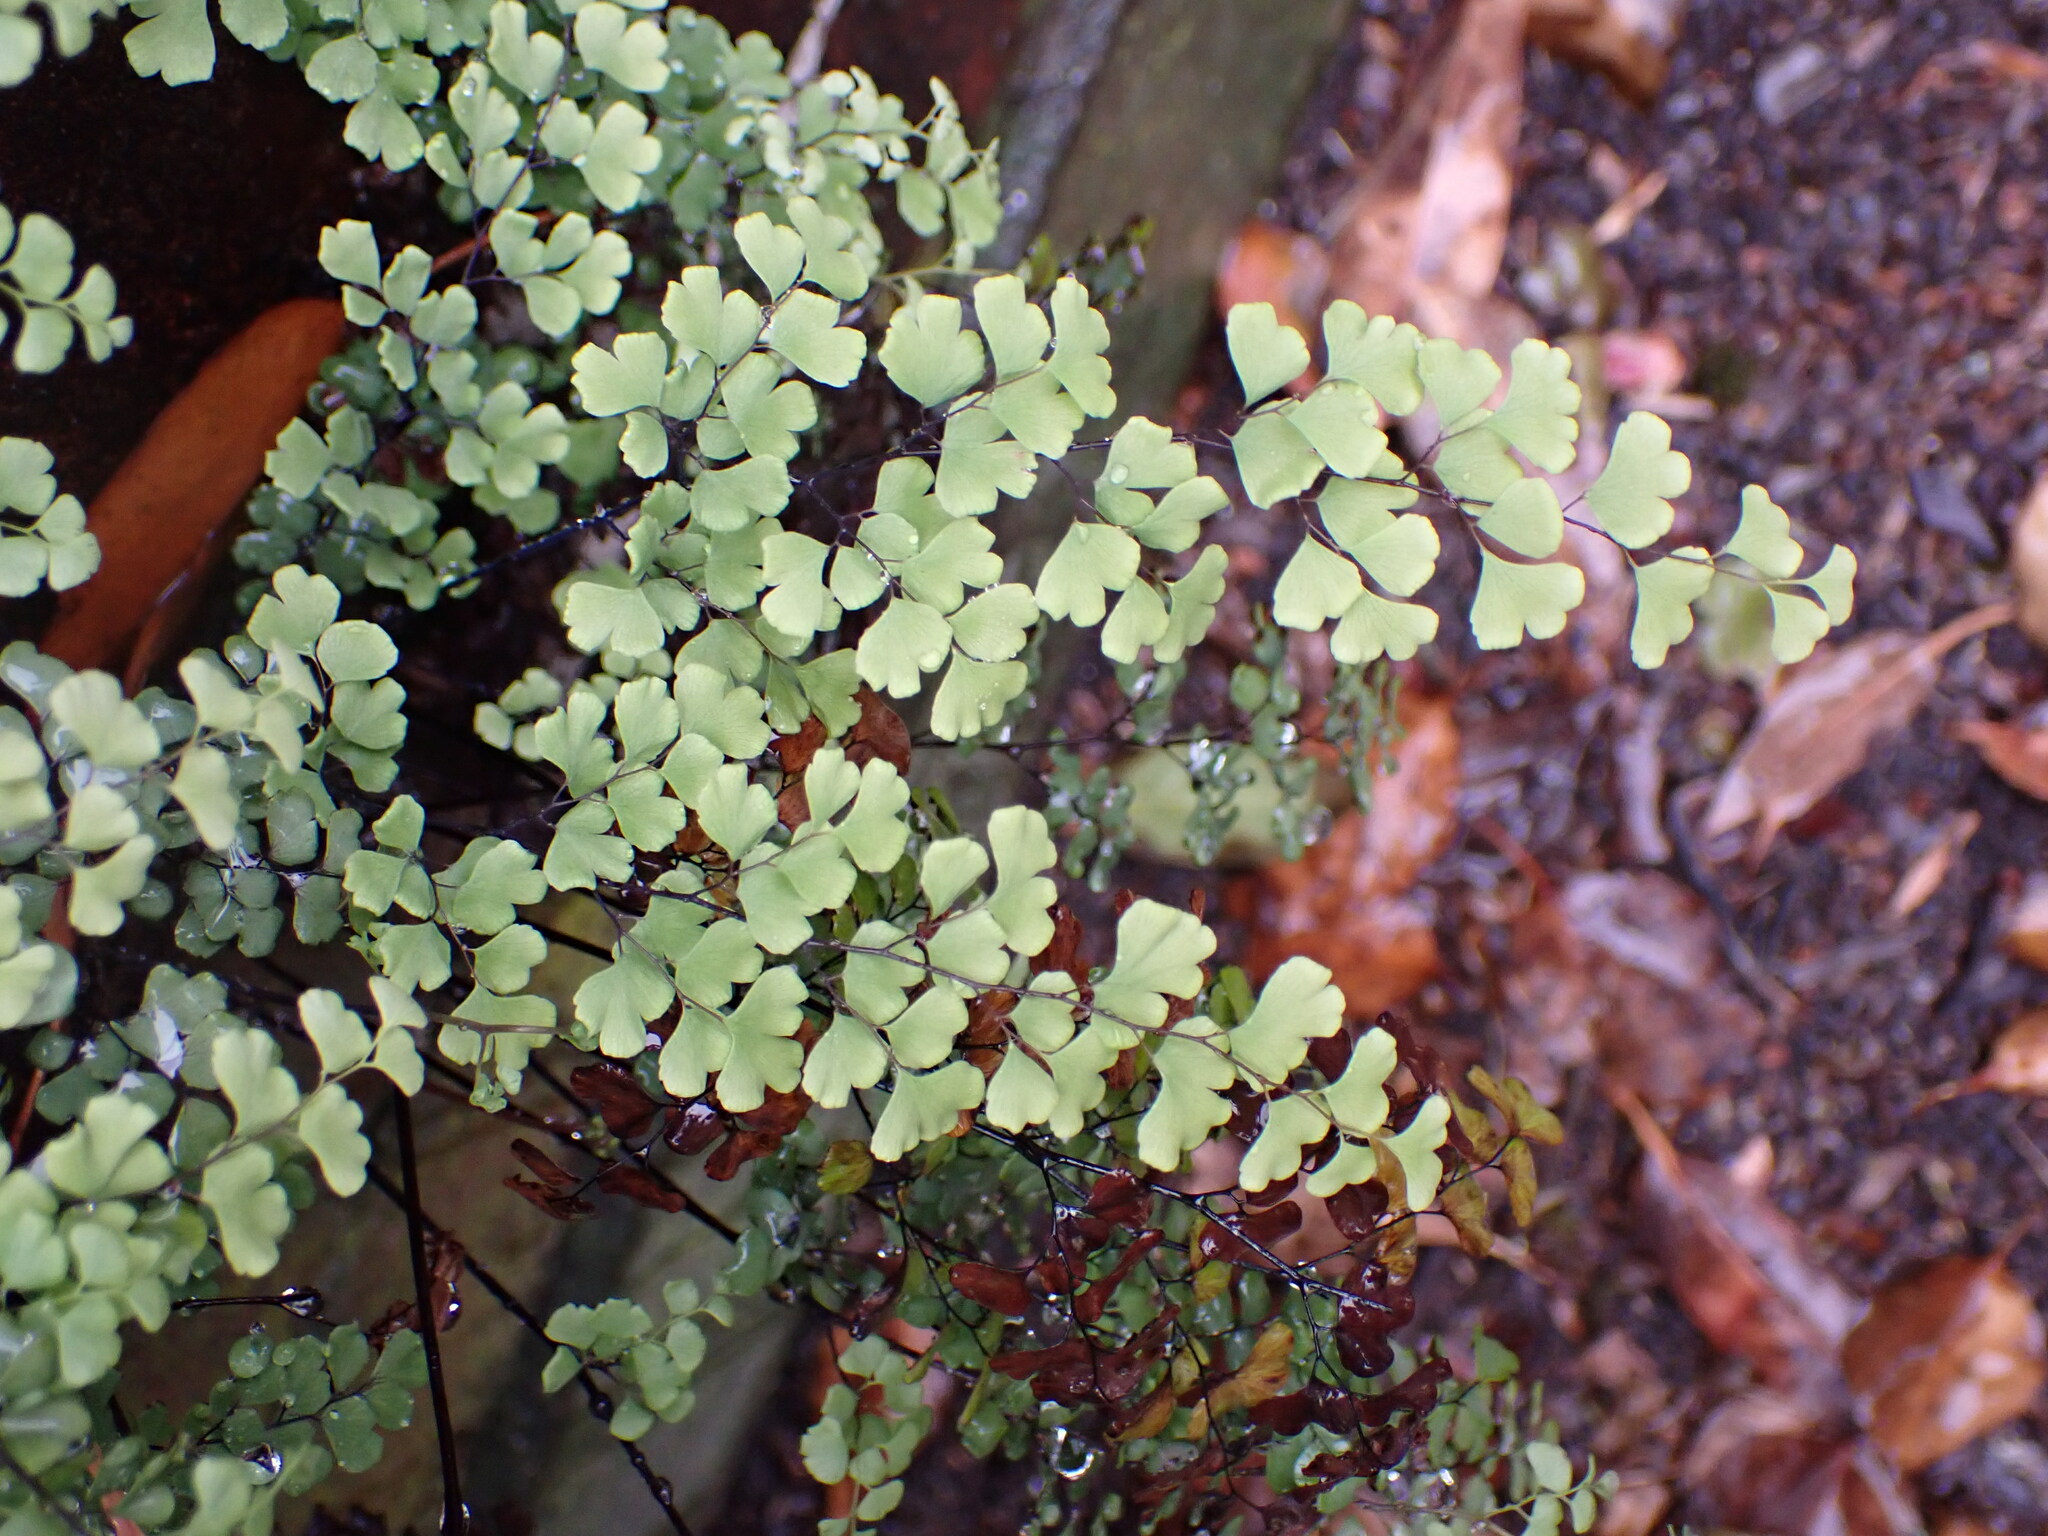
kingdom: Plantae
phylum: Tracheophyta
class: Polypodiopsida
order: Polypodiales
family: Pteridaceae
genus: Adiantum
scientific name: Adiantum capillus-veneris
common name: Maidenhair fern
